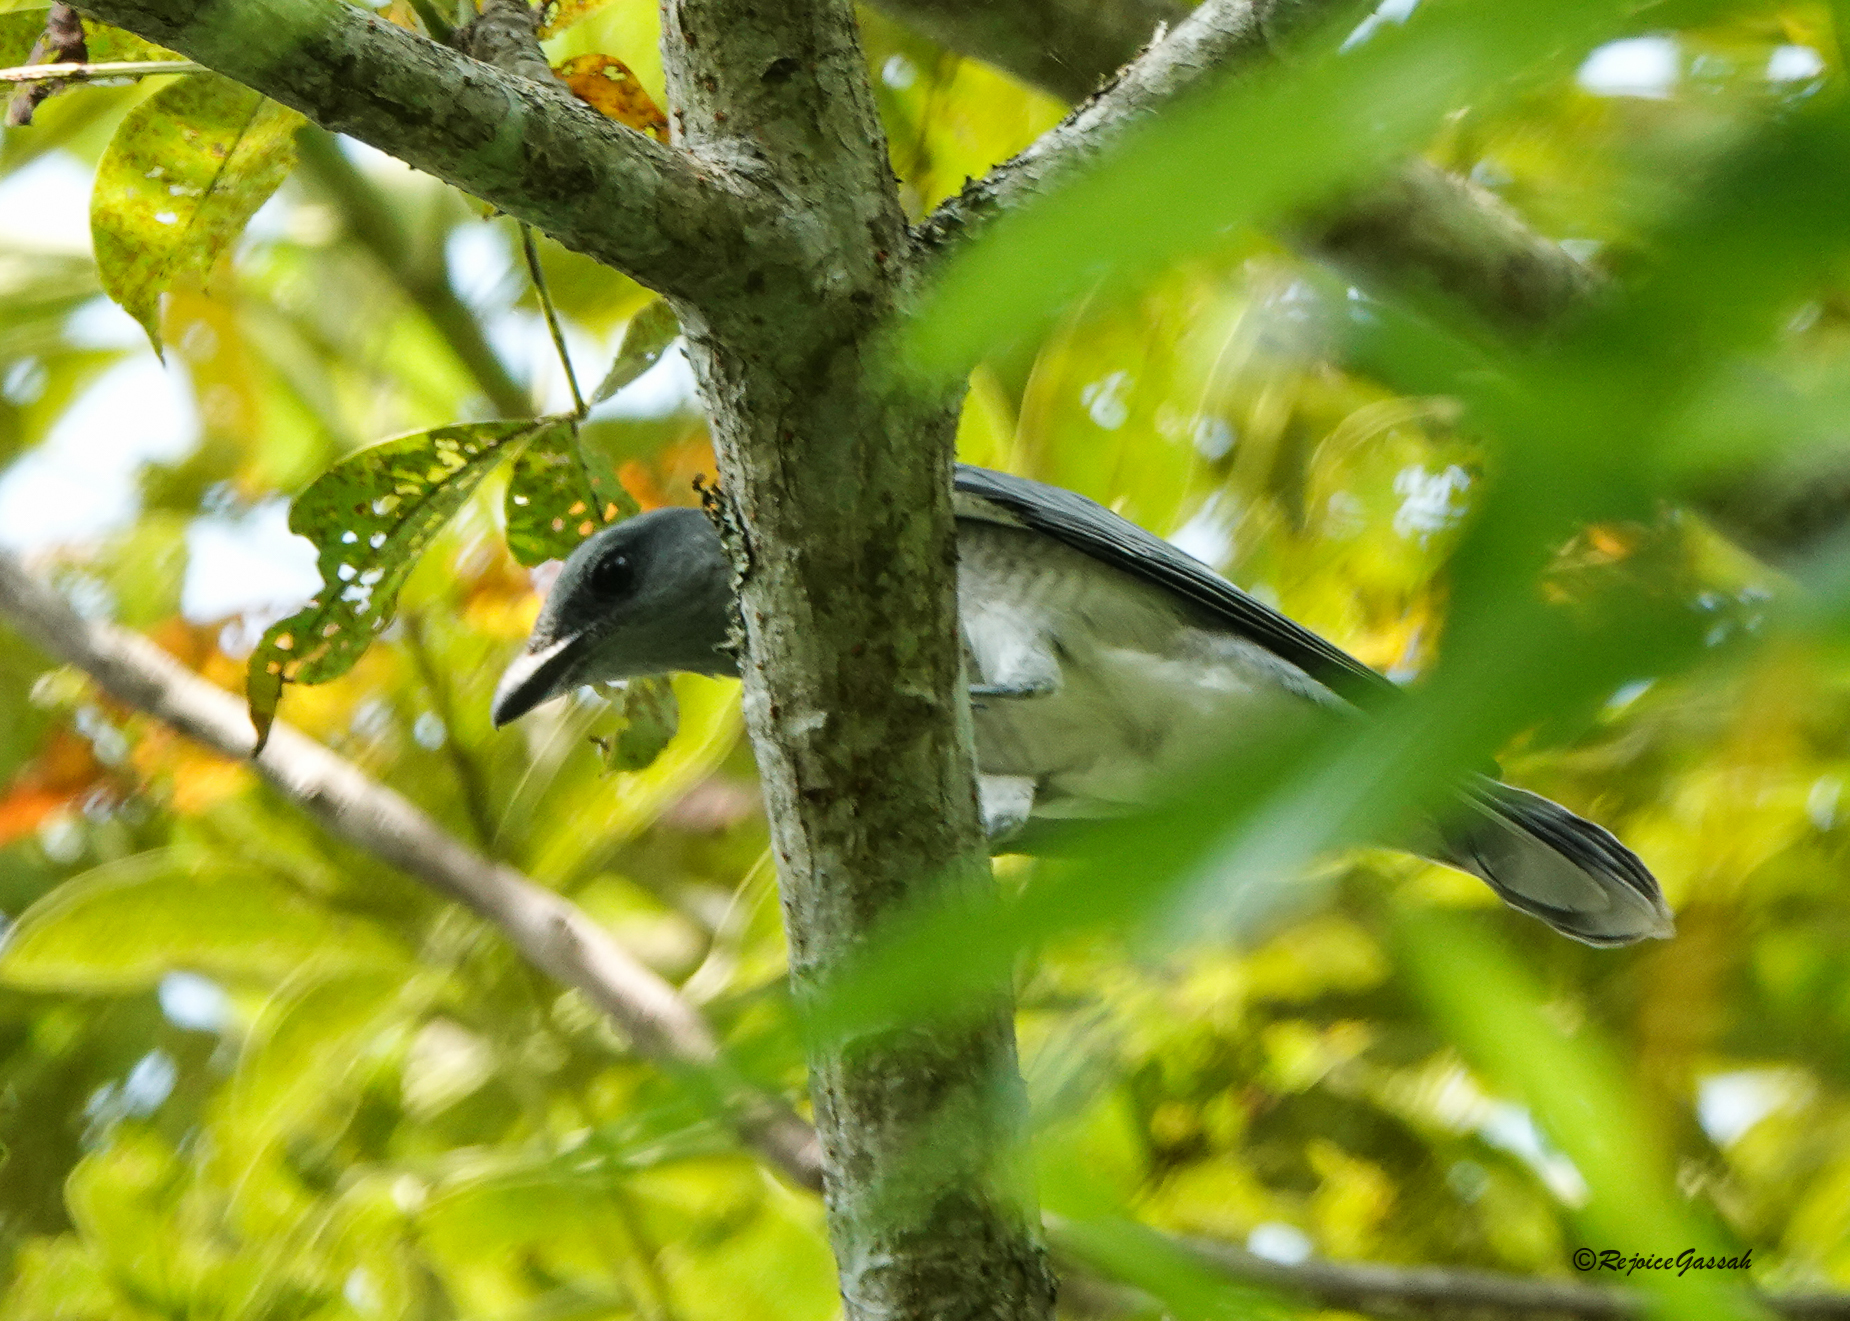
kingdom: Animalia
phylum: Chordata
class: Aves
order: Passeriformes
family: Campephagidae
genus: Coracina
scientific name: Coracina macei
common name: Large cuckooshrike
